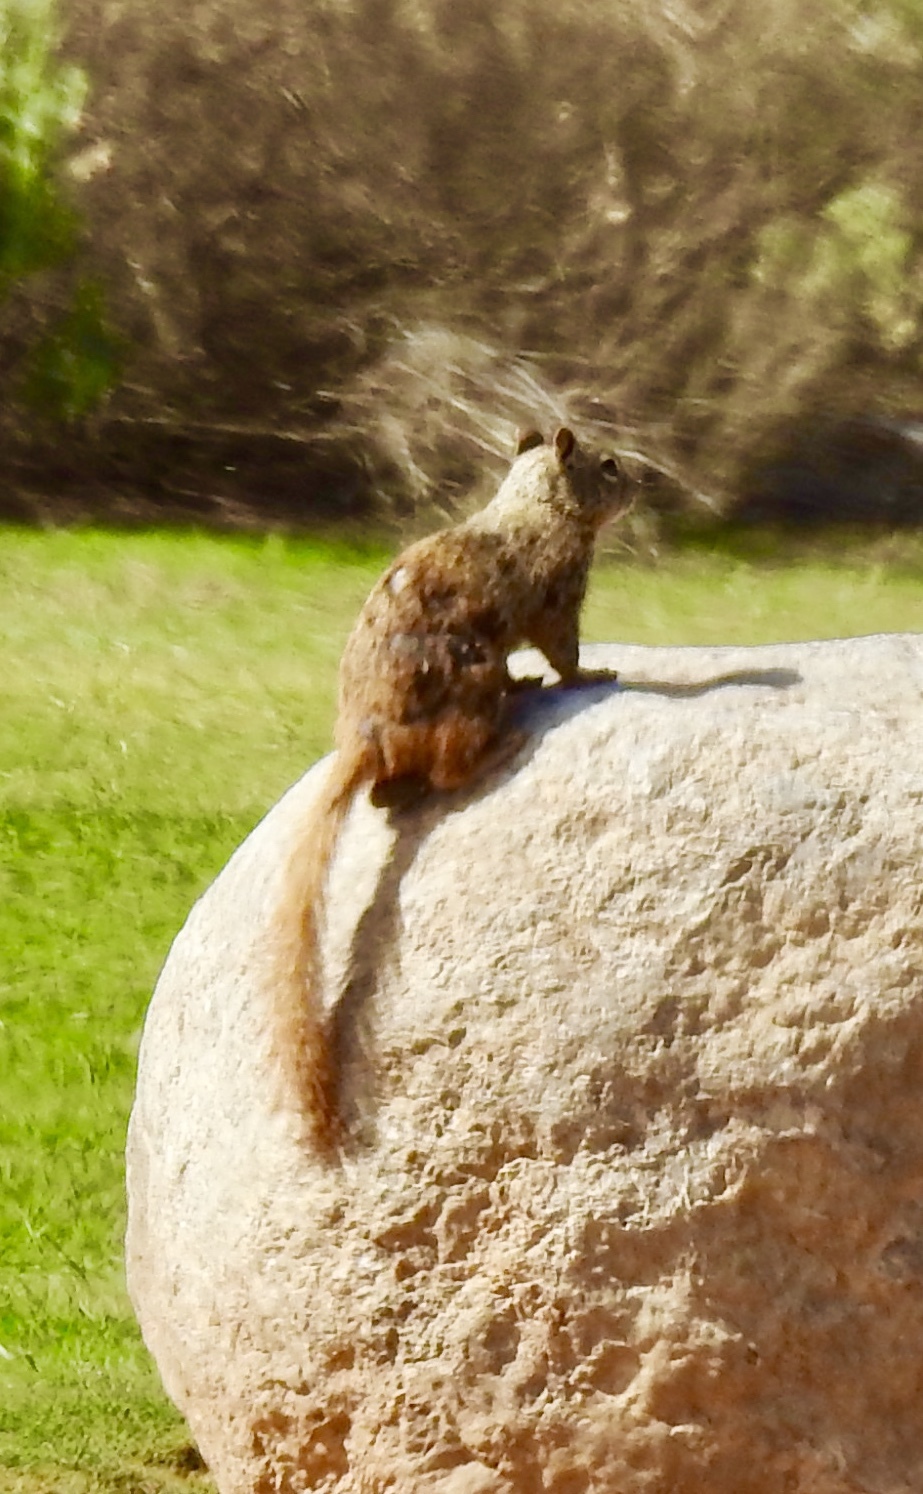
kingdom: Animalia
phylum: Chordata
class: Mammalia
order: Rodentia
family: Sciuridae
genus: Otospermophilus
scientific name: Otospermophilus variegatus
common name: Rock squirrel
